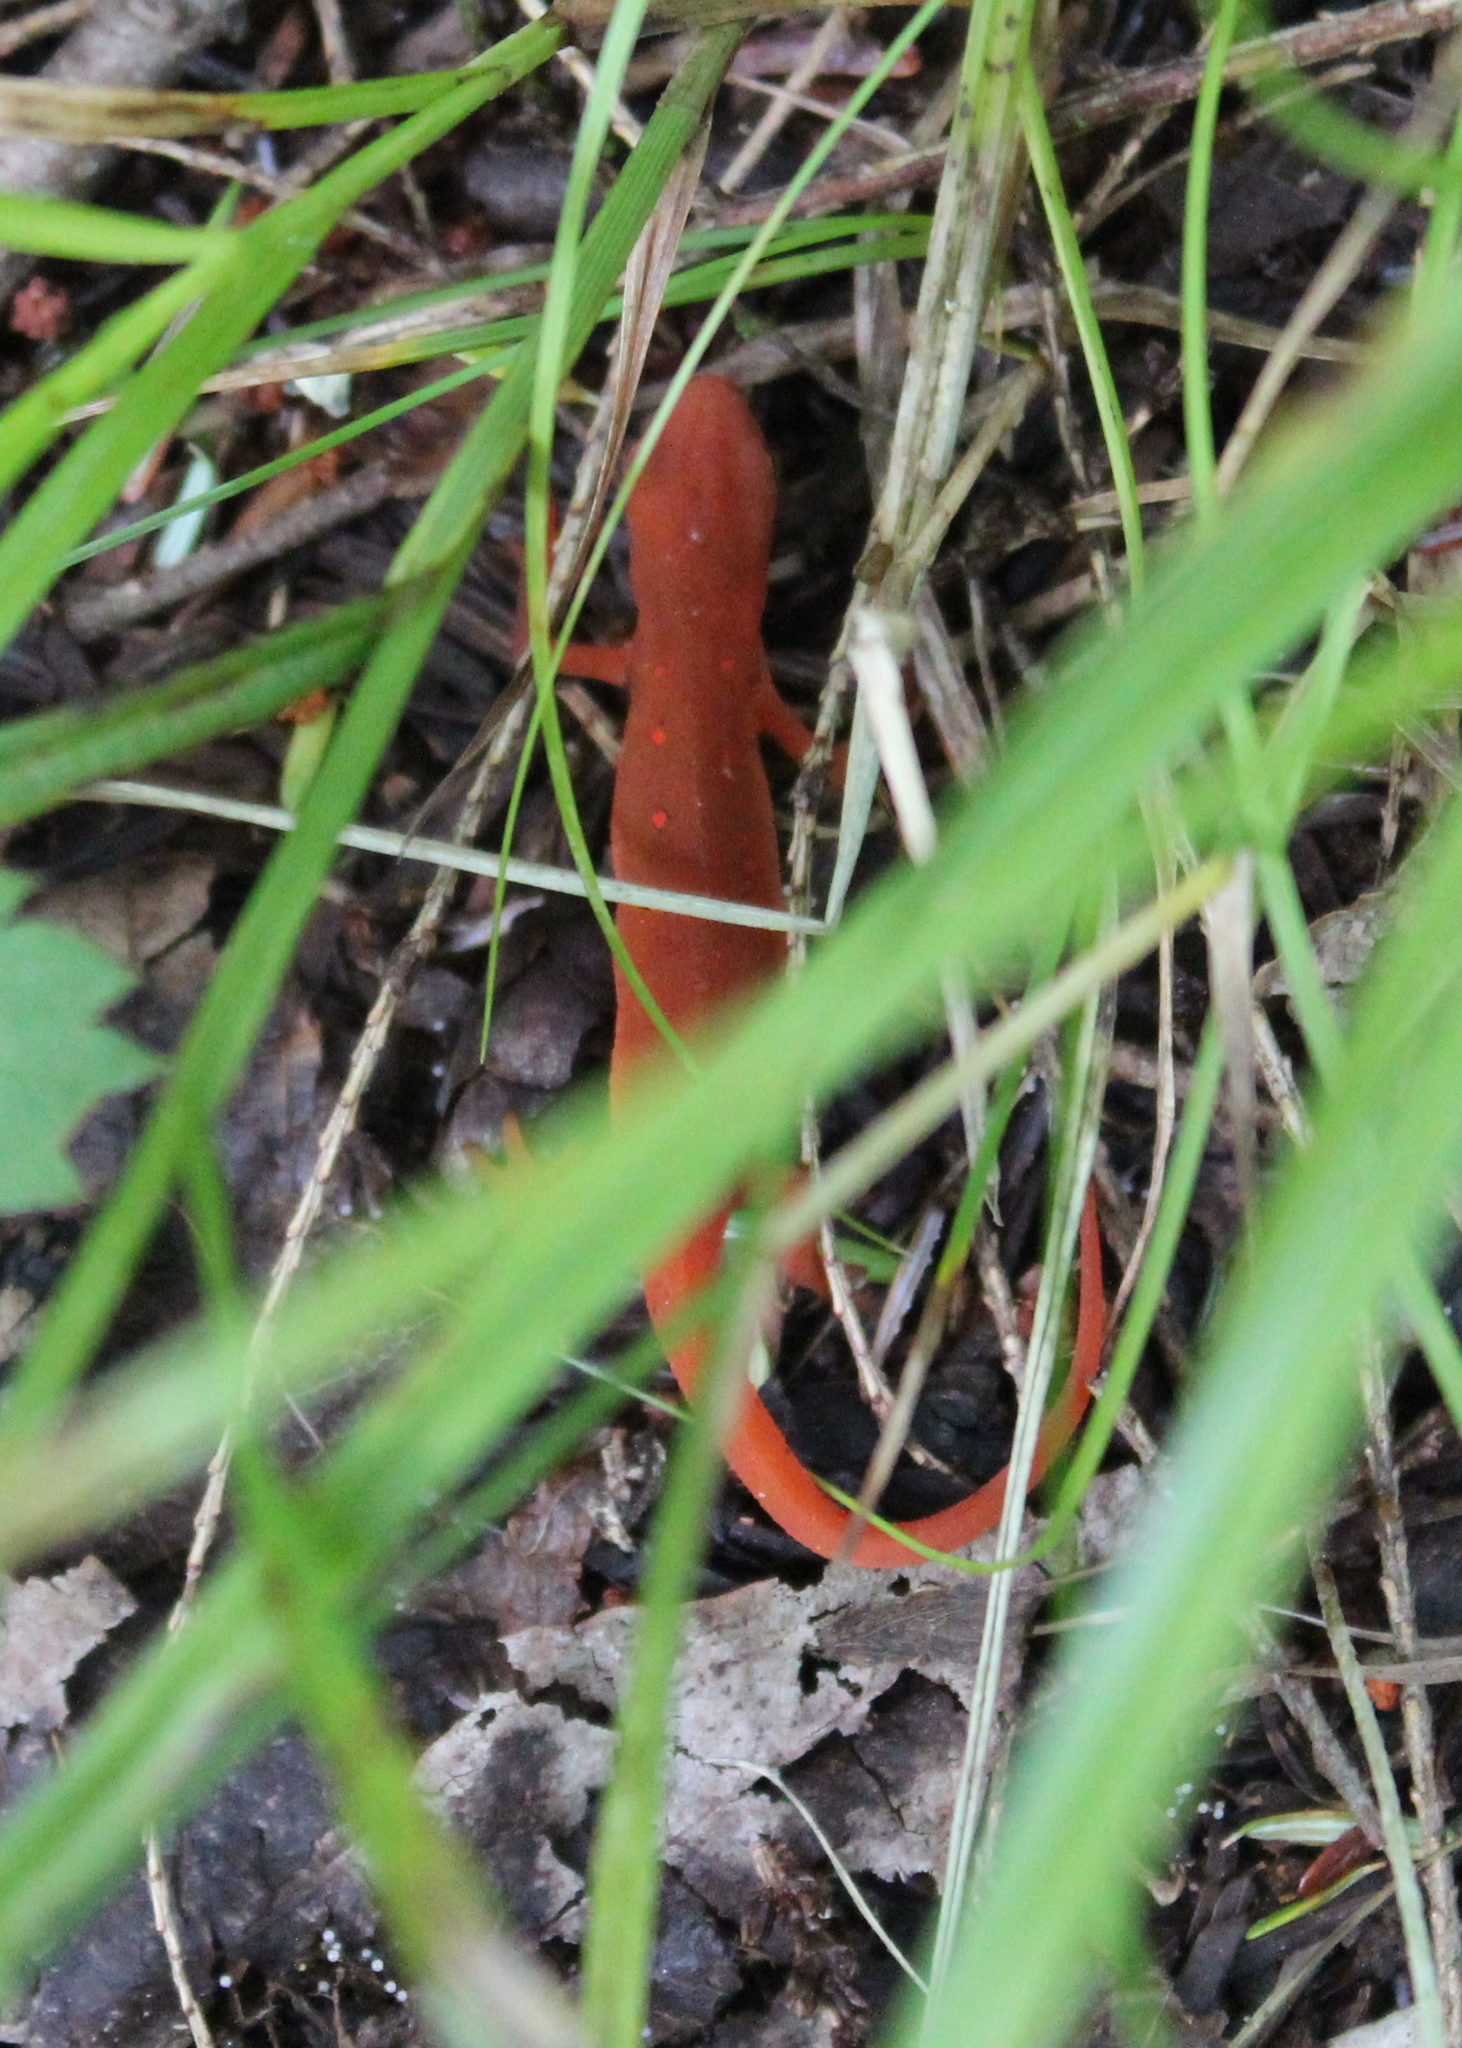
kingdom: Animalia
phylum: Chordata
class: Amphibia
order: Caudata
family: Salamandridae
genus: Notophthalmus
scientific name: Notophthalmus viridescens
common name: Eastern newt
